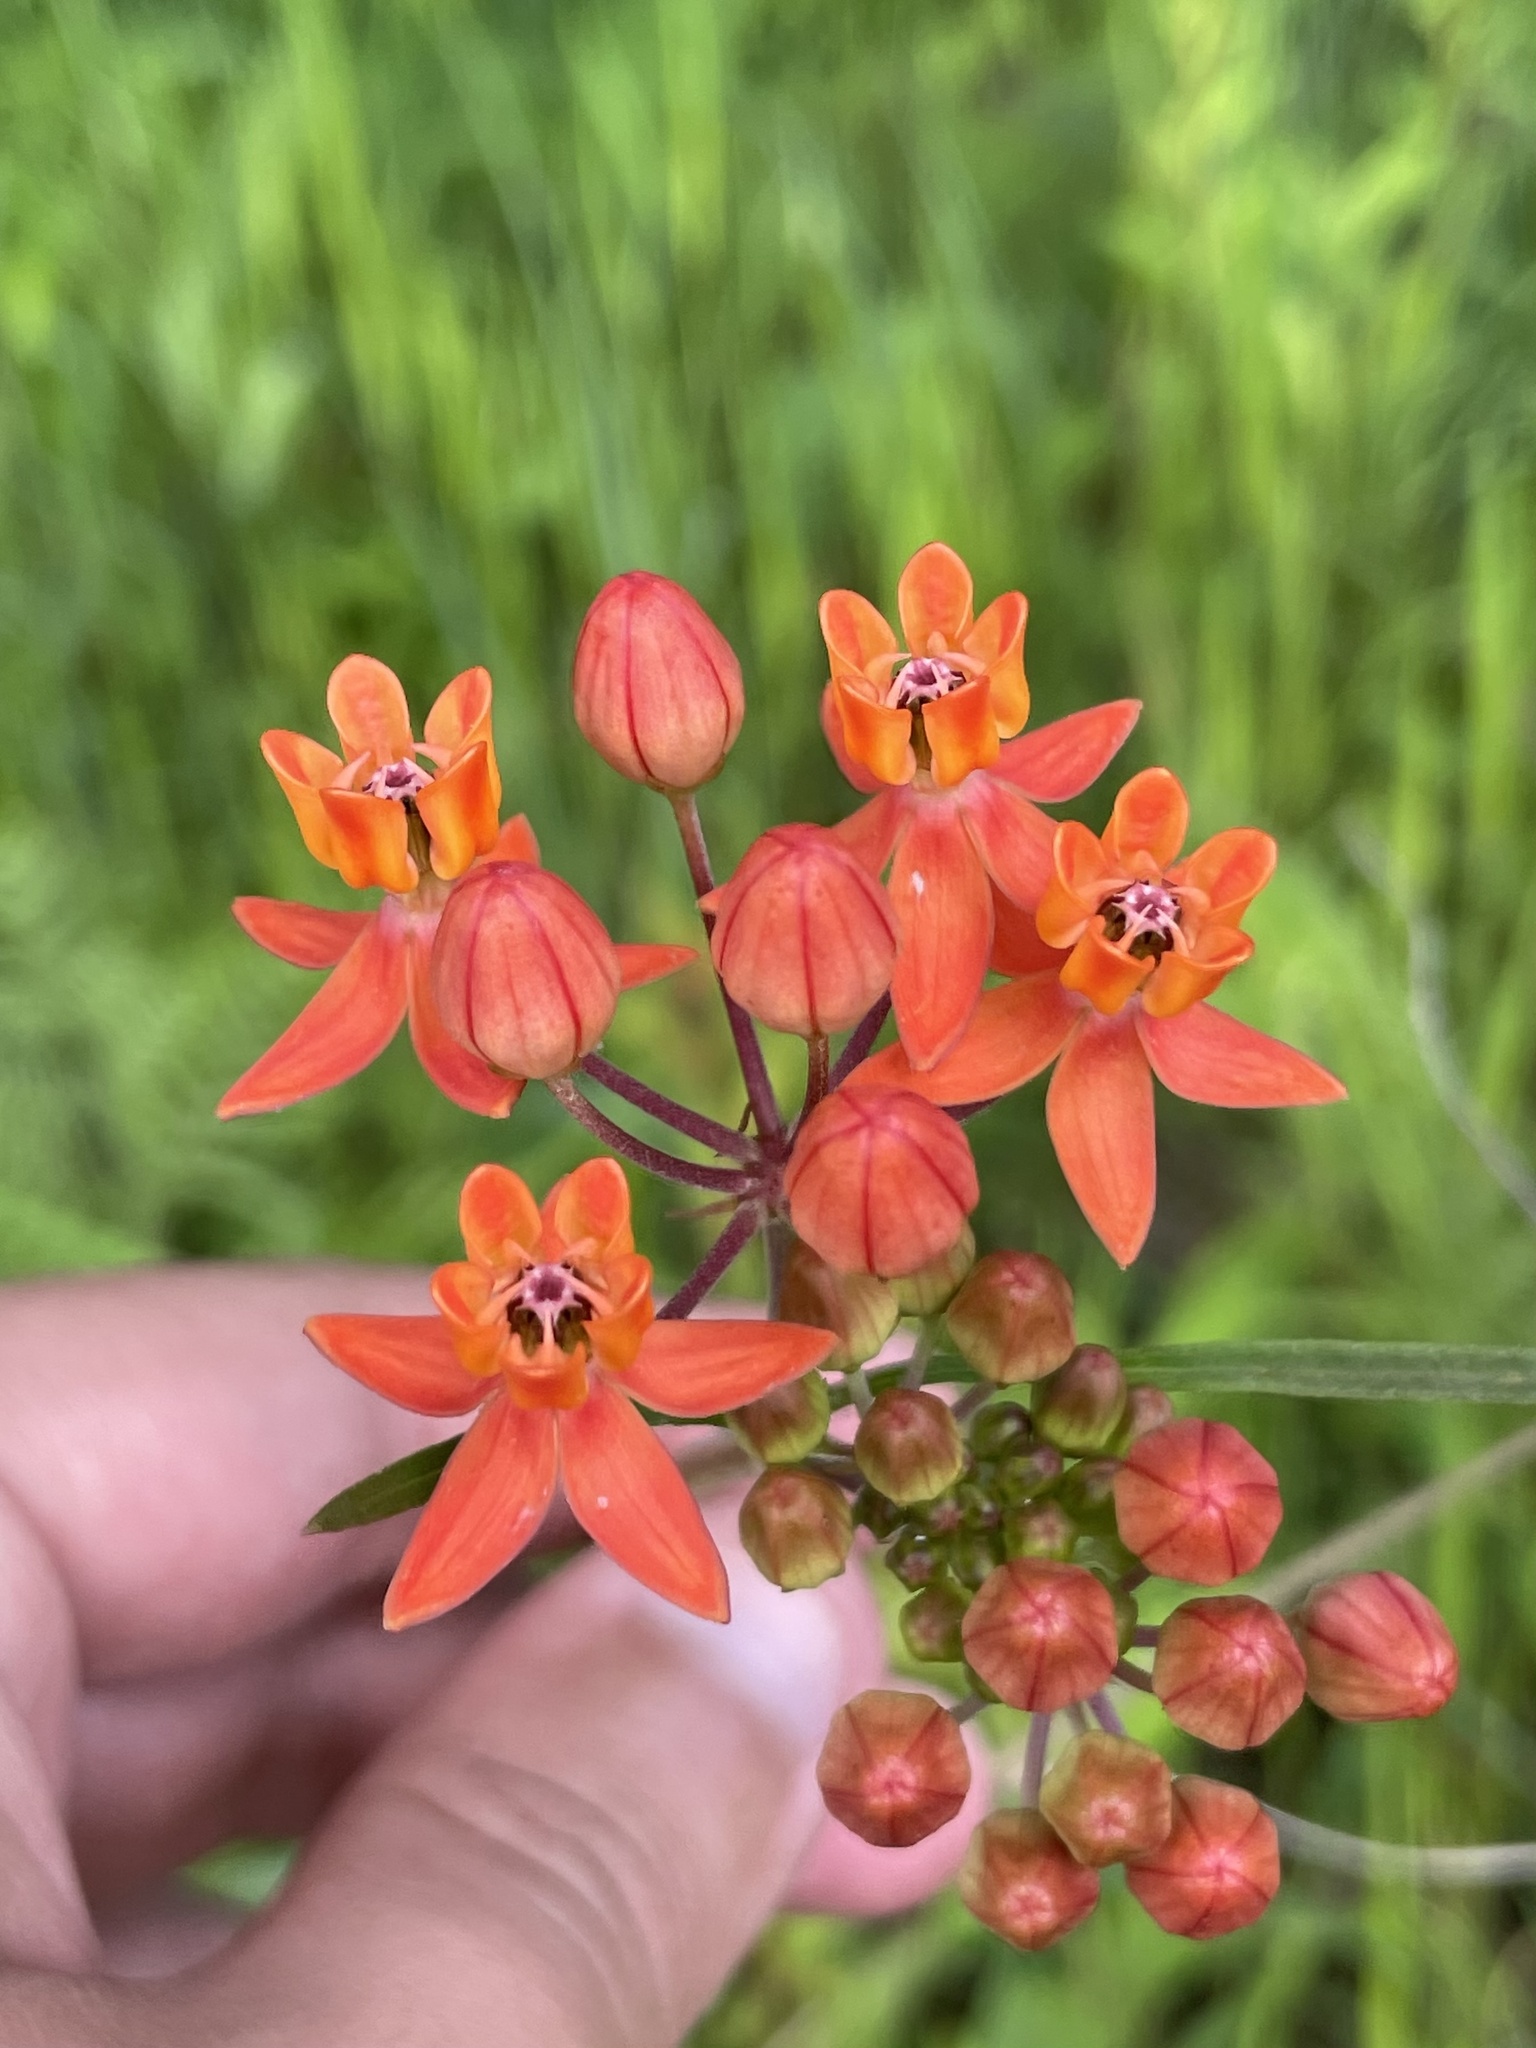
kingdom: Plantae
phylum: Tracheophyta
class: Magnoliopsida
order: Gentianales
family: Apocynaceae
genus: Asclepias
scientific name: Asclepias lanceolata
